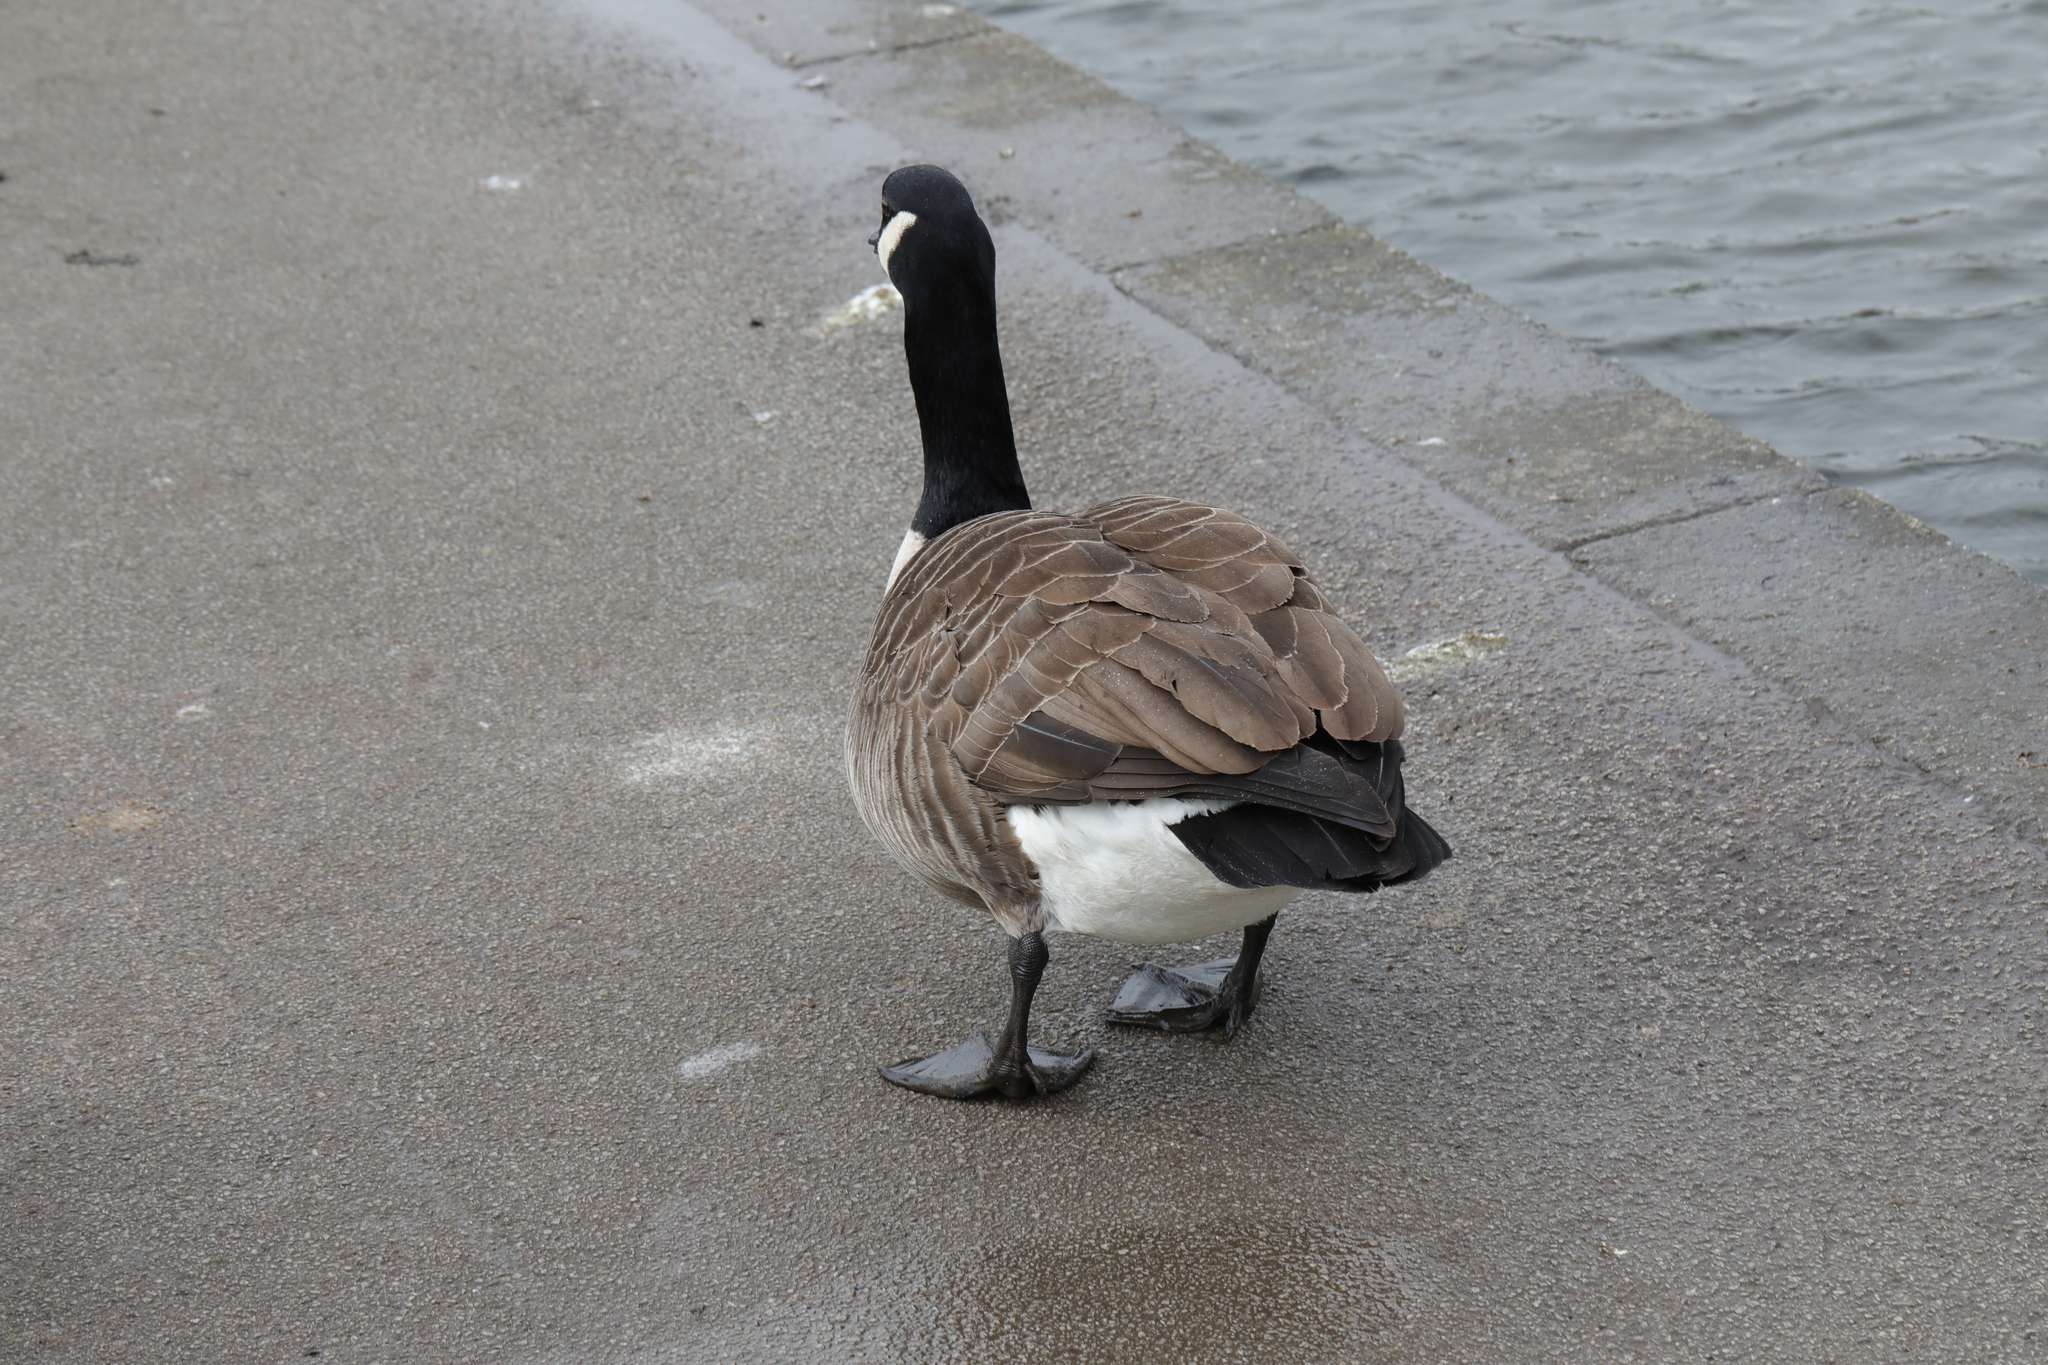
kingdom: Animalia
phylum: Chordata
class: Aves
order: Anseriformes
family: Anatidae
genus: Branta
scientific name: Branta canadensis
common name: Canada goose
